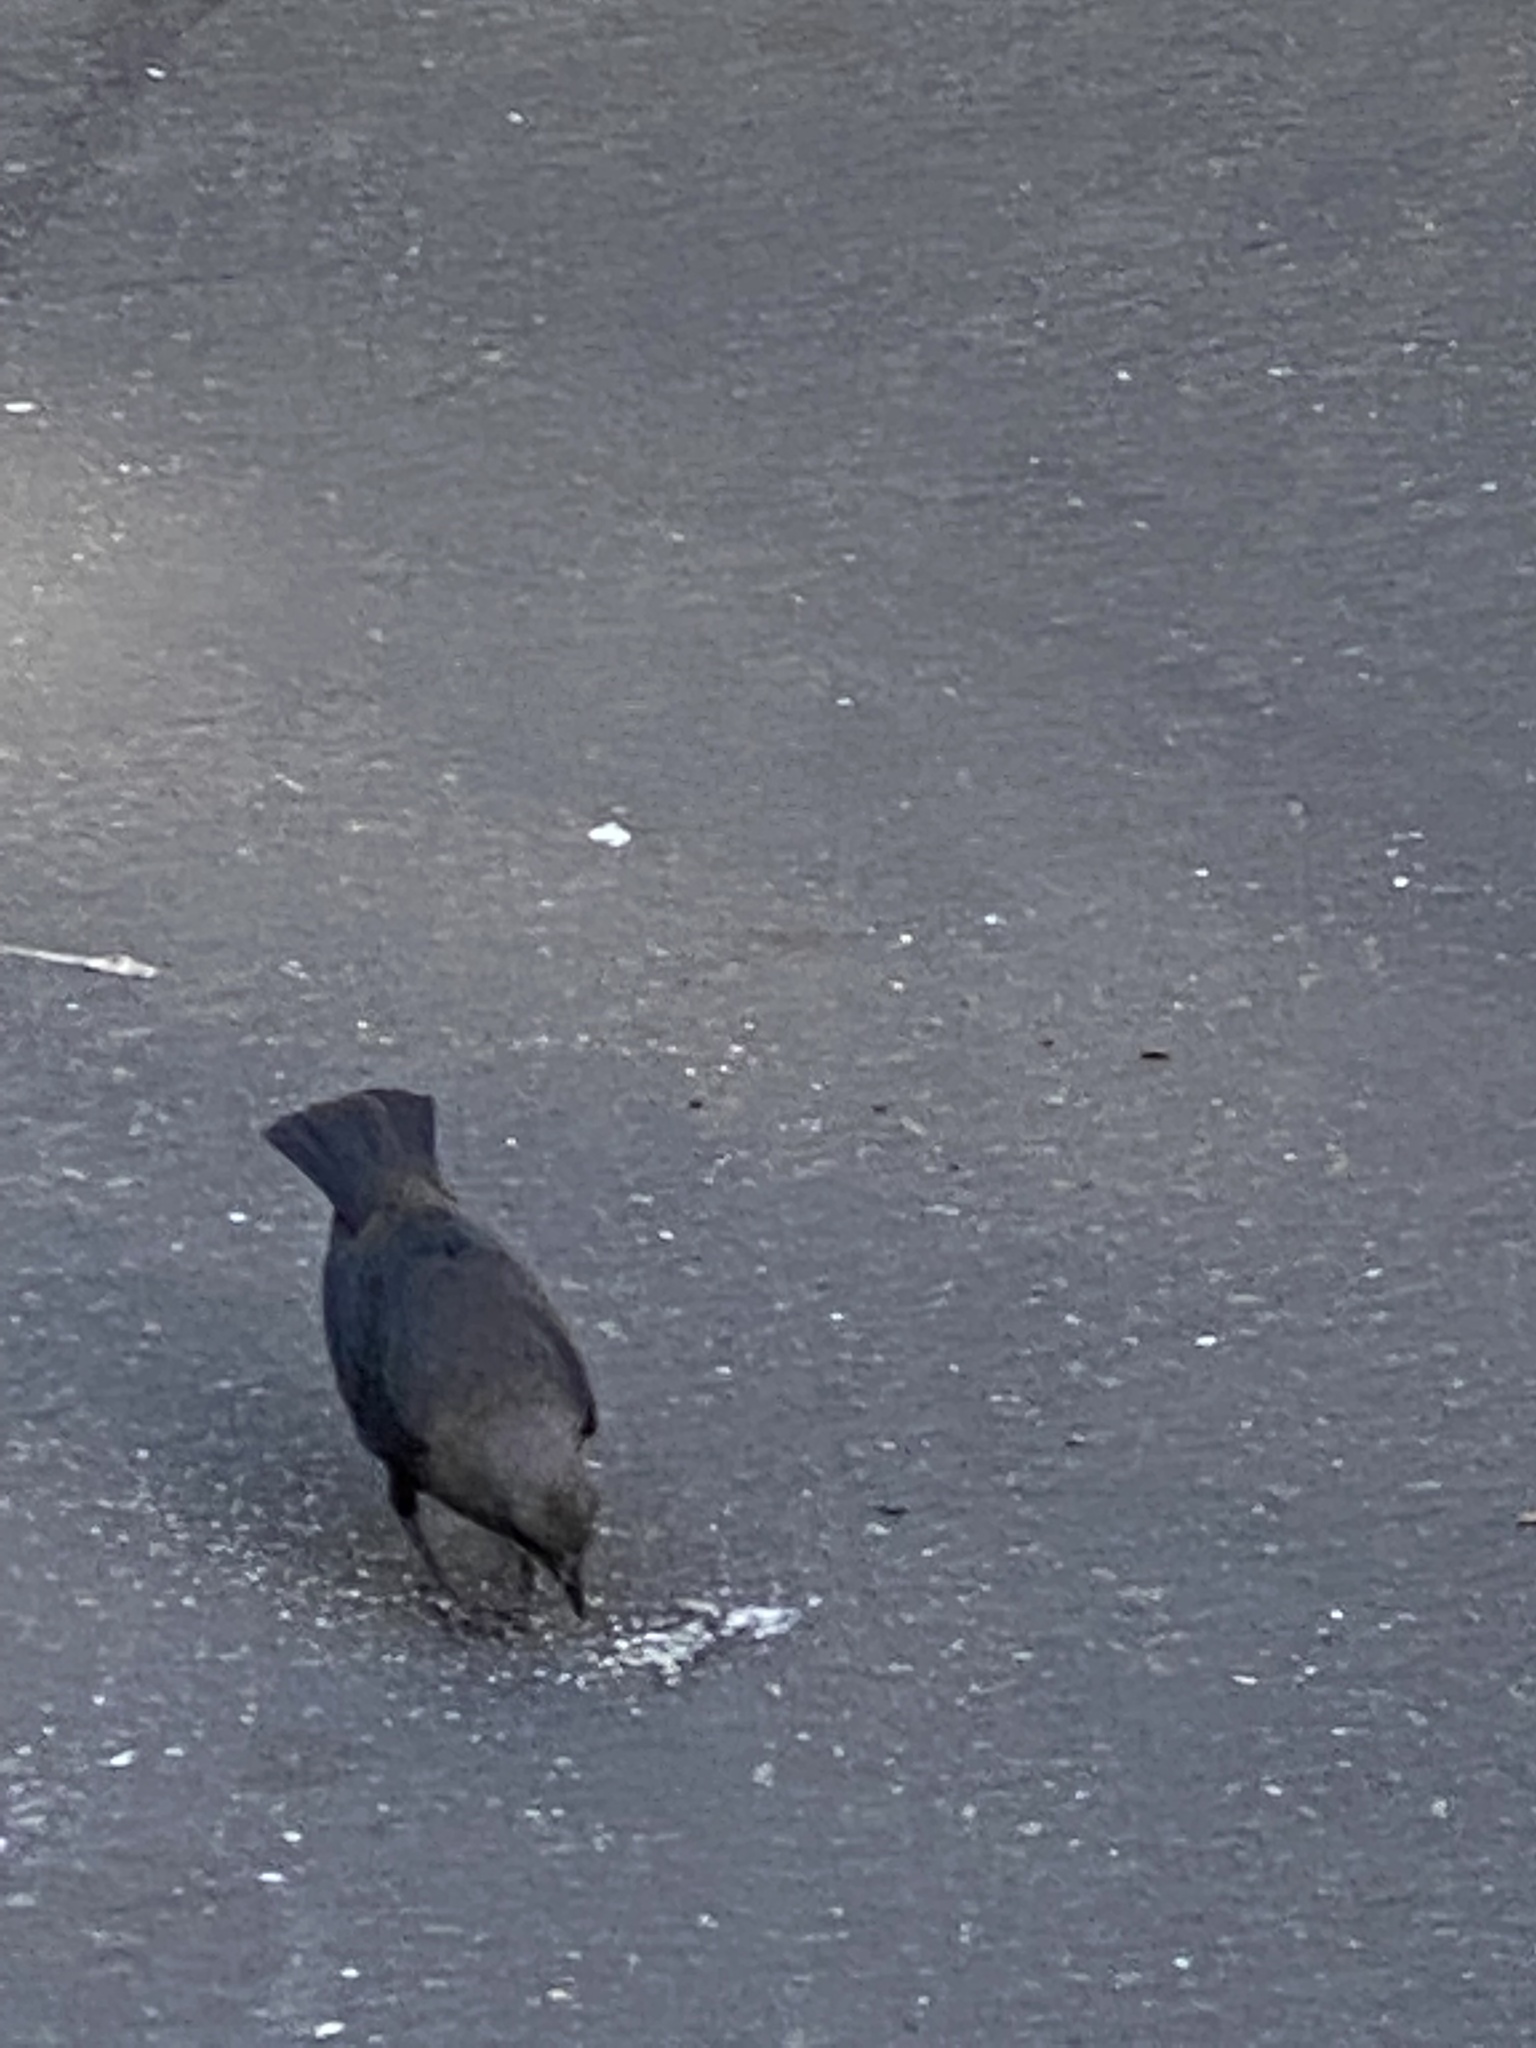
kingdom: Animalia
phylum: Chordata
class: Aves
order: Passeriformes
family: Icteridae
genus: Euphagus
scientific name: Euphagus cyanocephalus
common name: Brewer's blackbird
